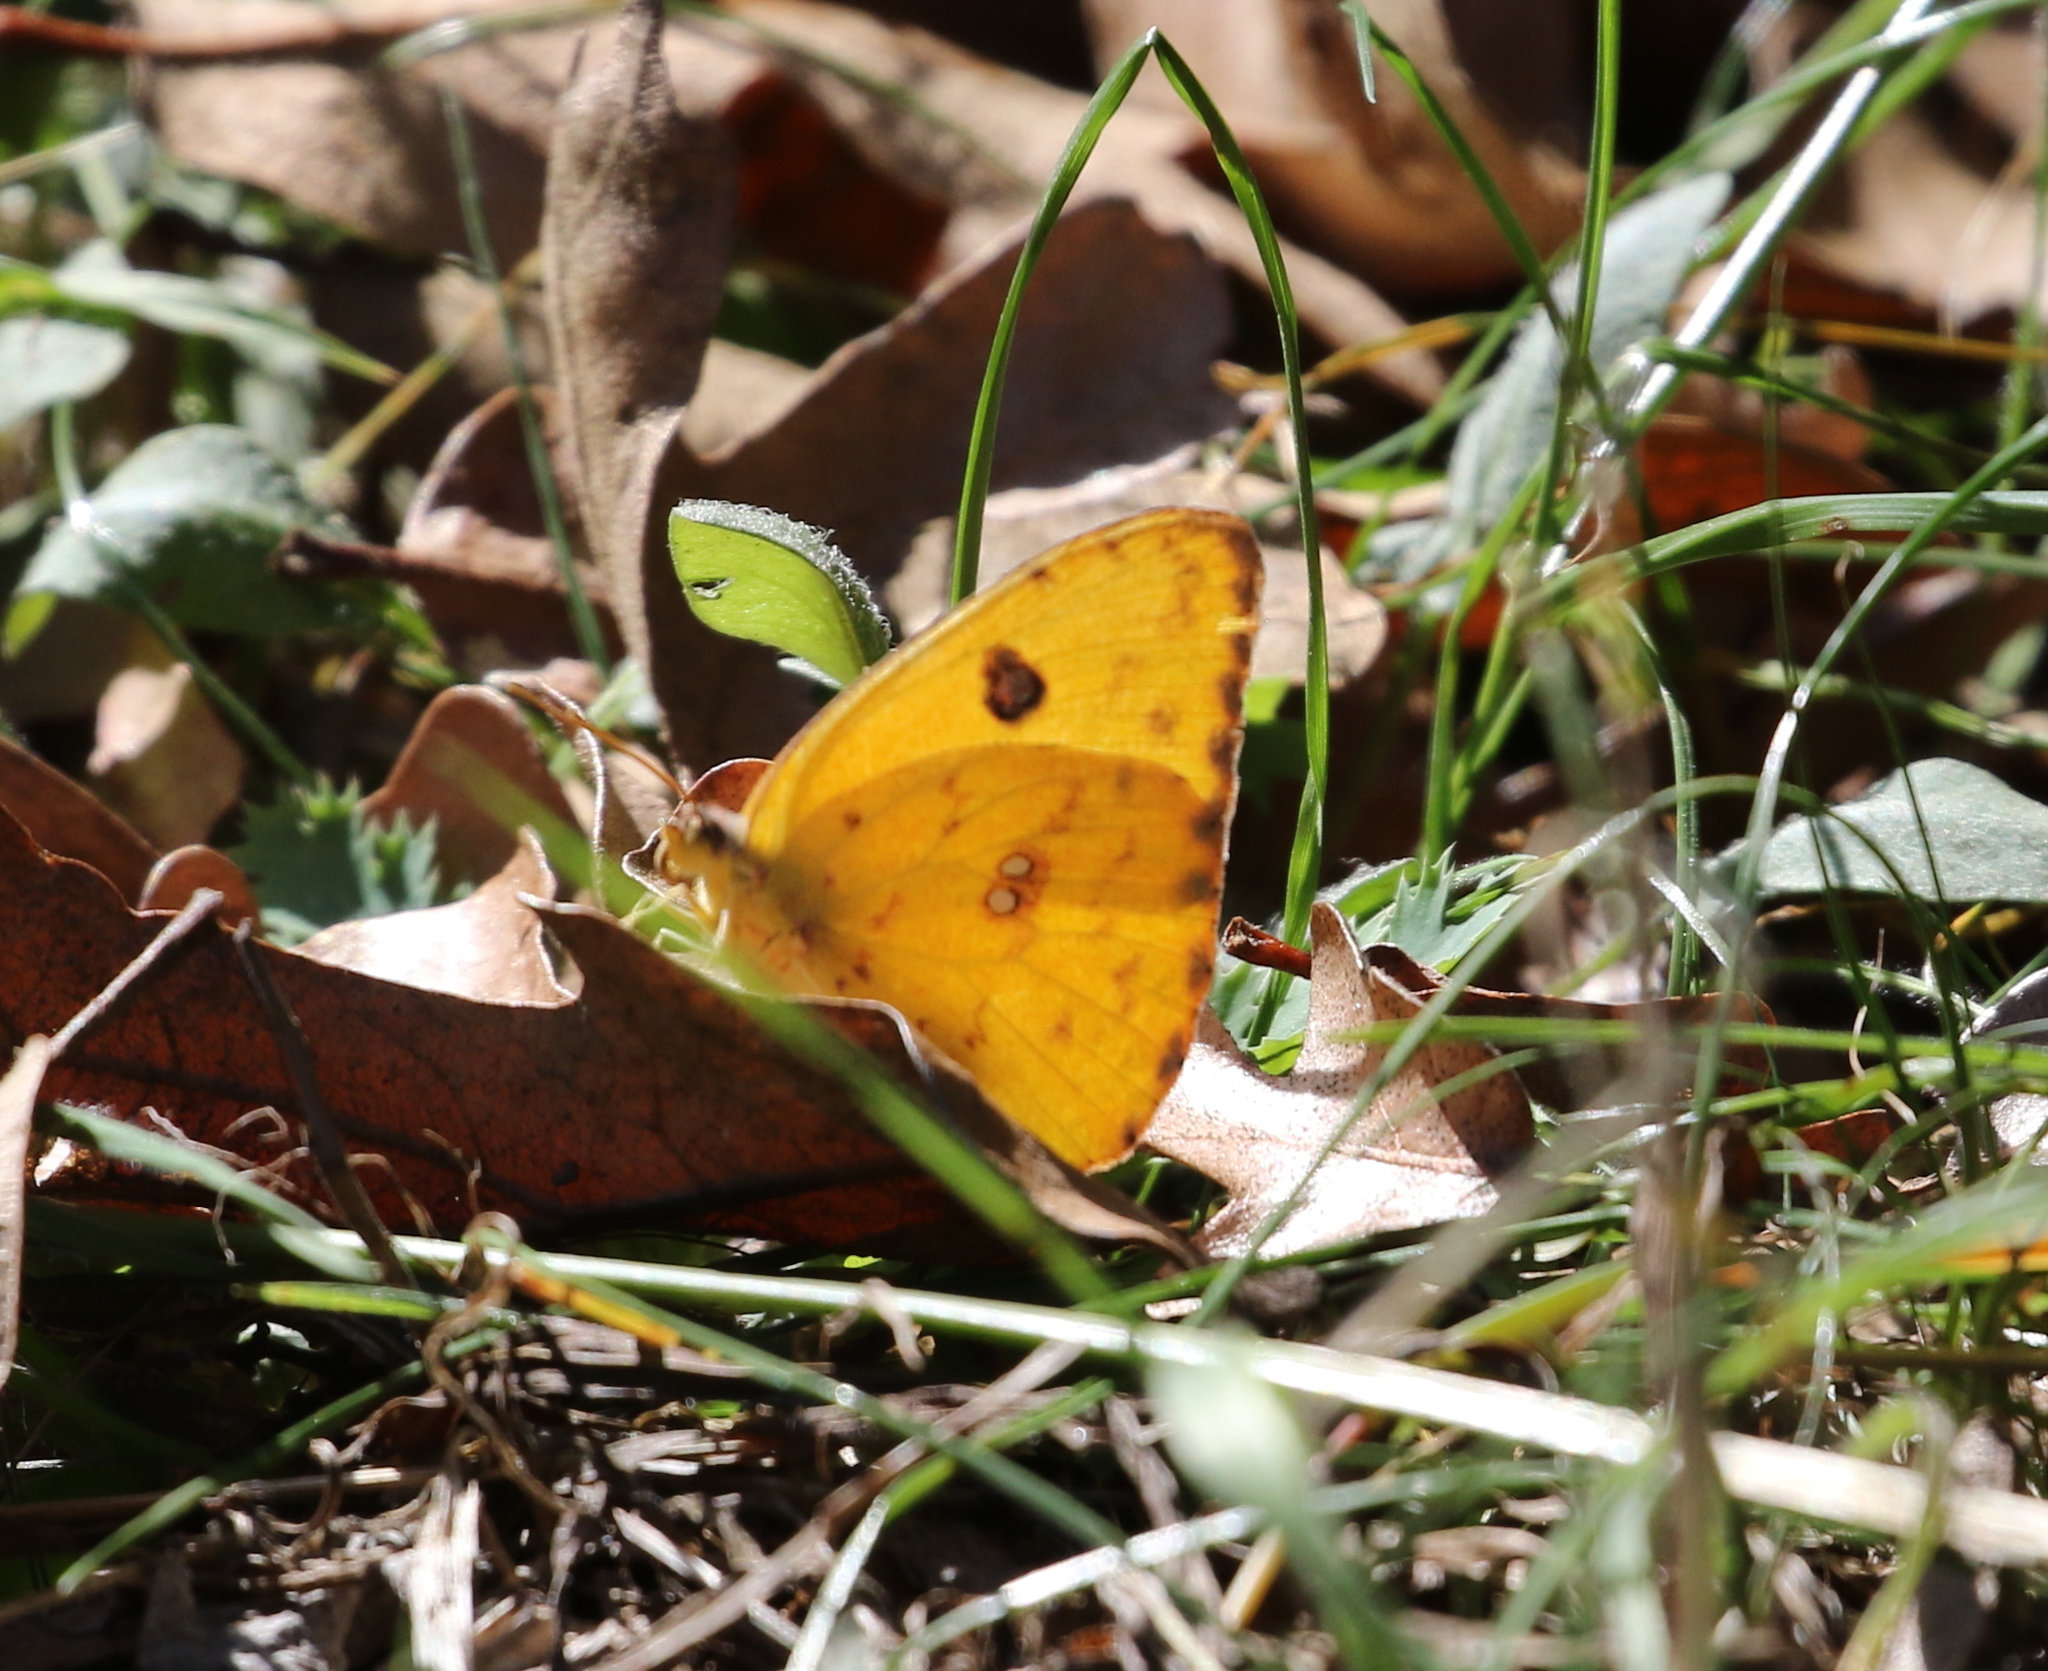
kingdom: Animalia
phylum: Arthropoda
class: Insecta
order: Lepidoptera
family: Pieridae
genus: Phoebis
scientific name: Phoebis sennae
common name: Cloudless sulphur
